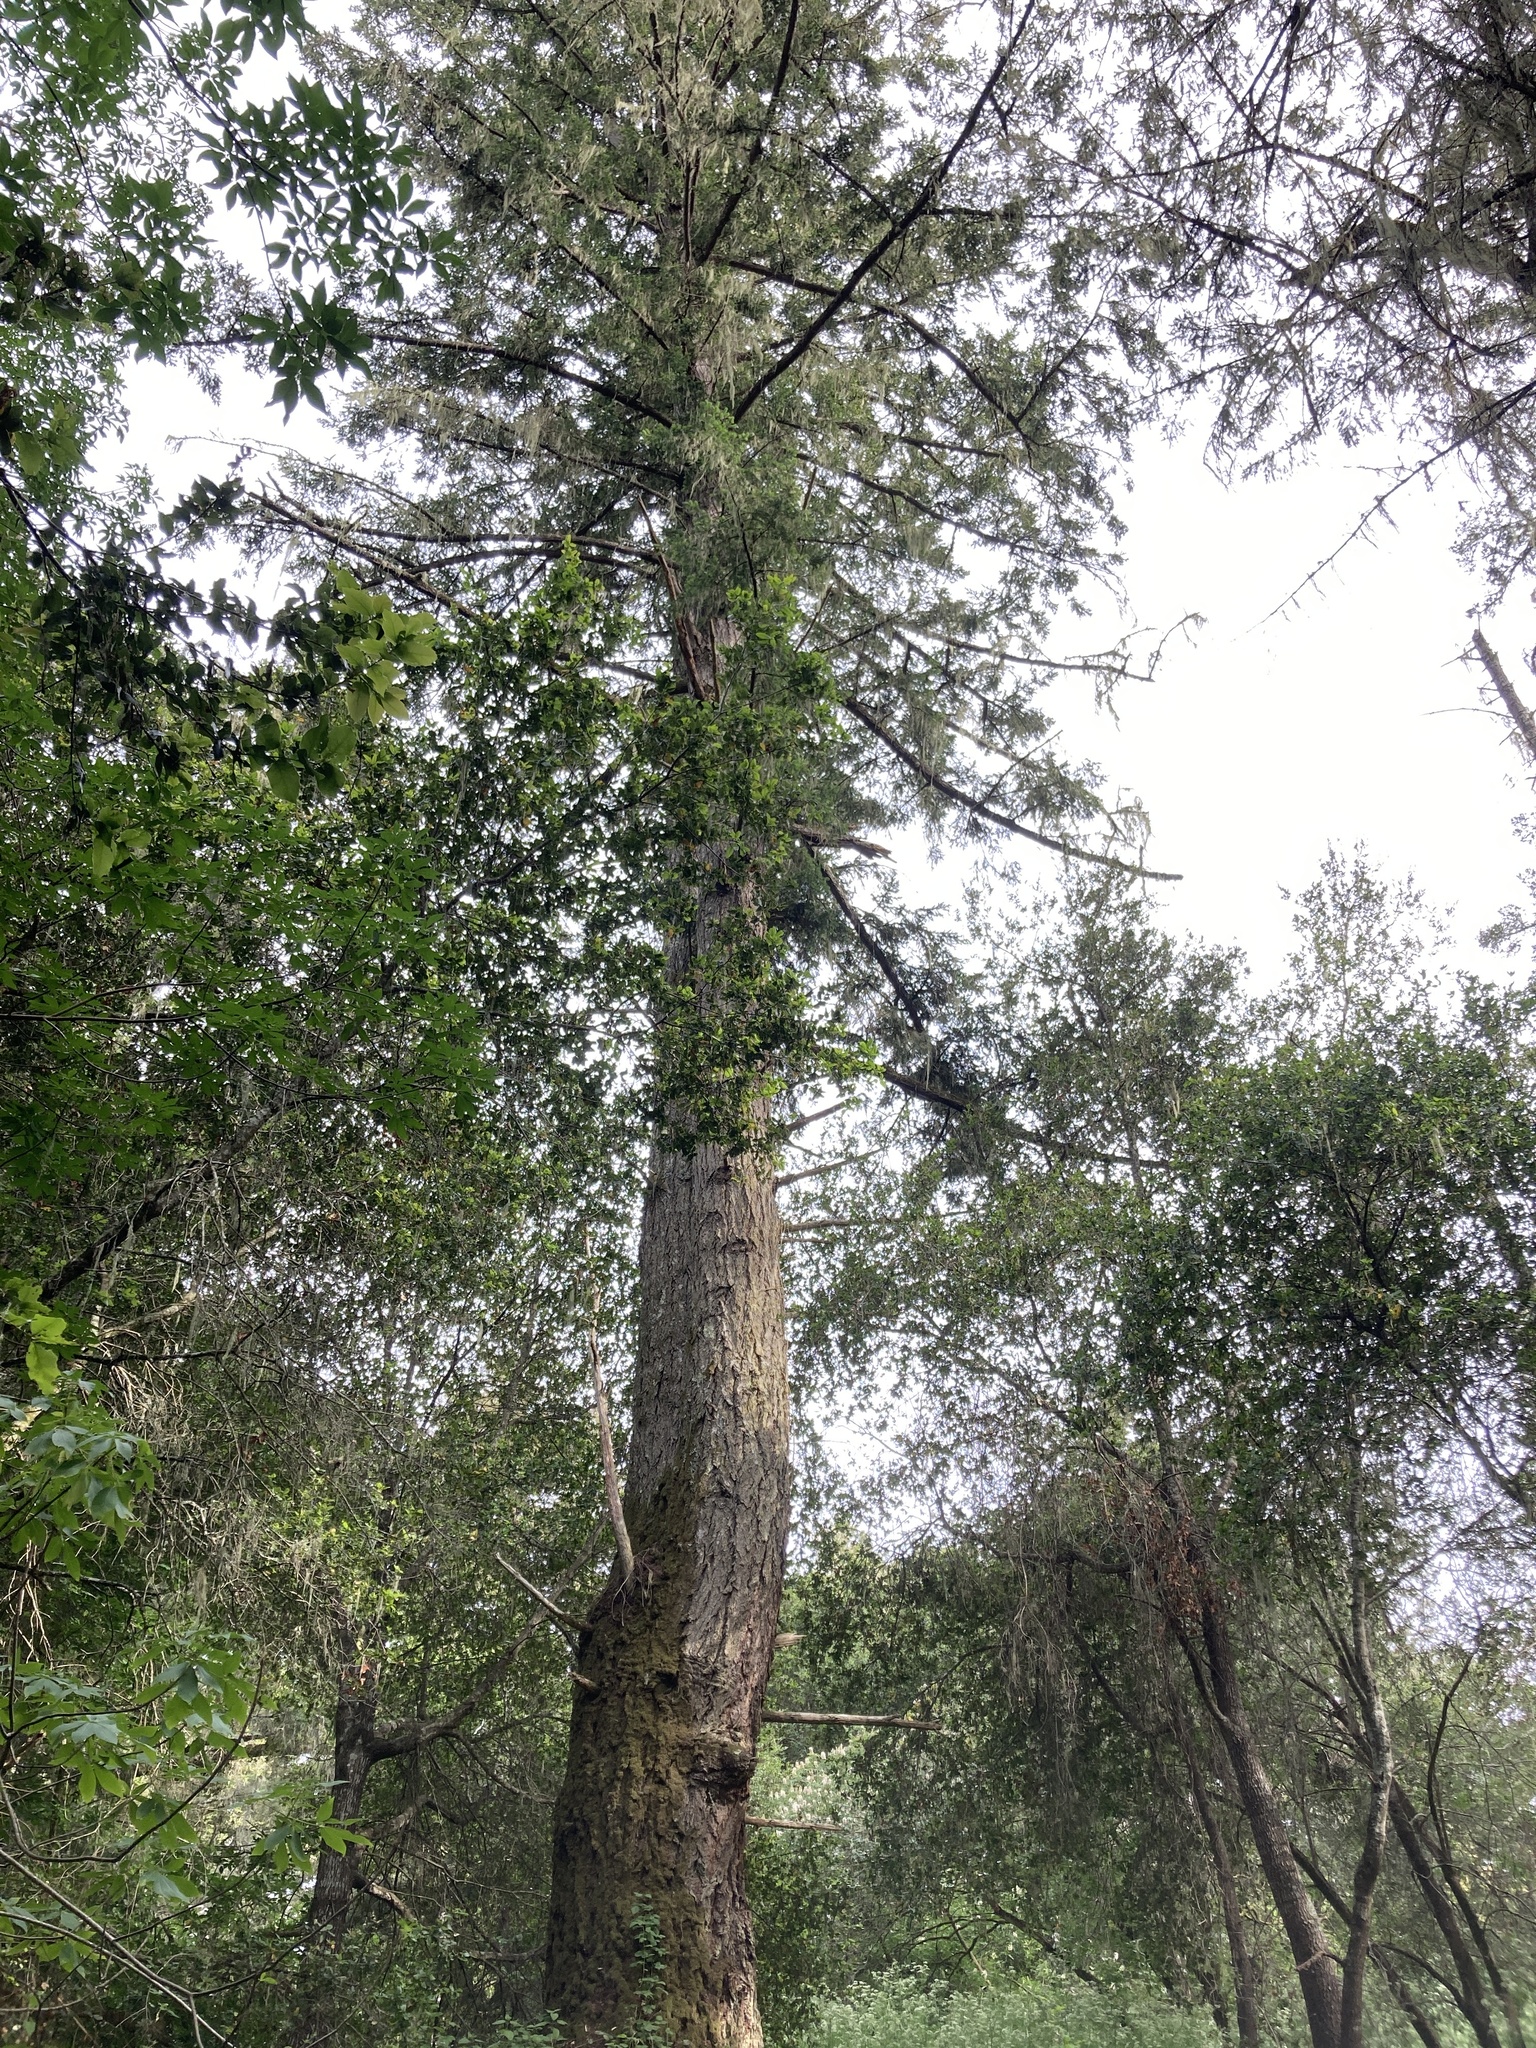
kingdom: Plantae
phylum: Tracheophyta
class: Pinopsida
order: Pinales
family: Pinaceae
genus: Pseudotsuga
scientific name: Pseudotsuga menziesii
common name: Douglas fir
